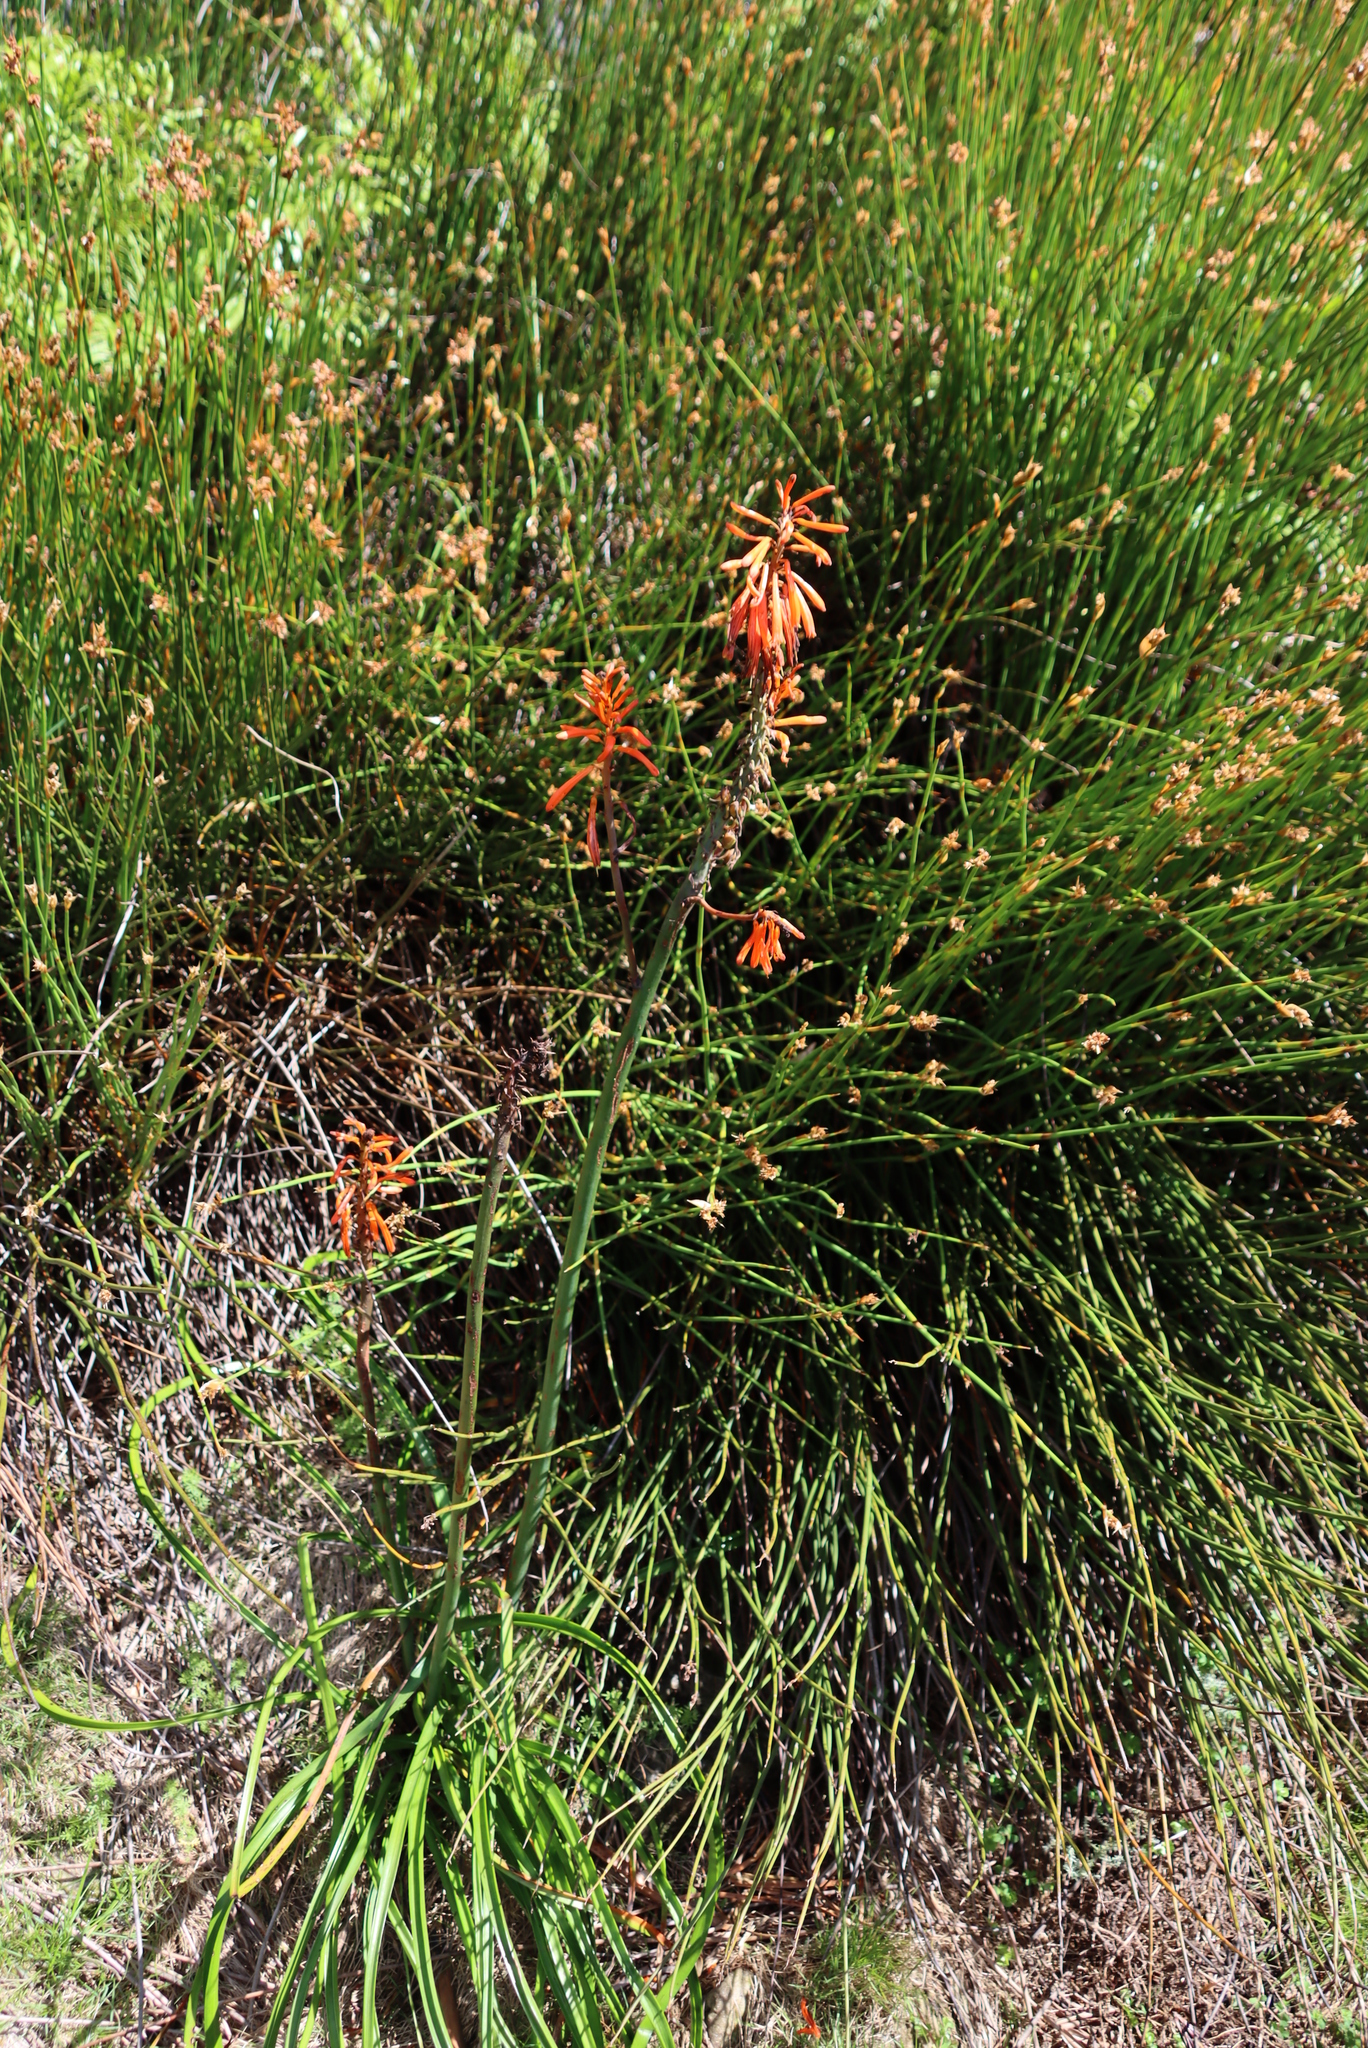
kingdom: Plantae
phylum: Tracheophyta
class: Liliopsida
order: Asparagales
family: Asphodelaceae
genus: Kniphofia
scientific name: Kniphofia uvaria
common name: Red-hot-poker
